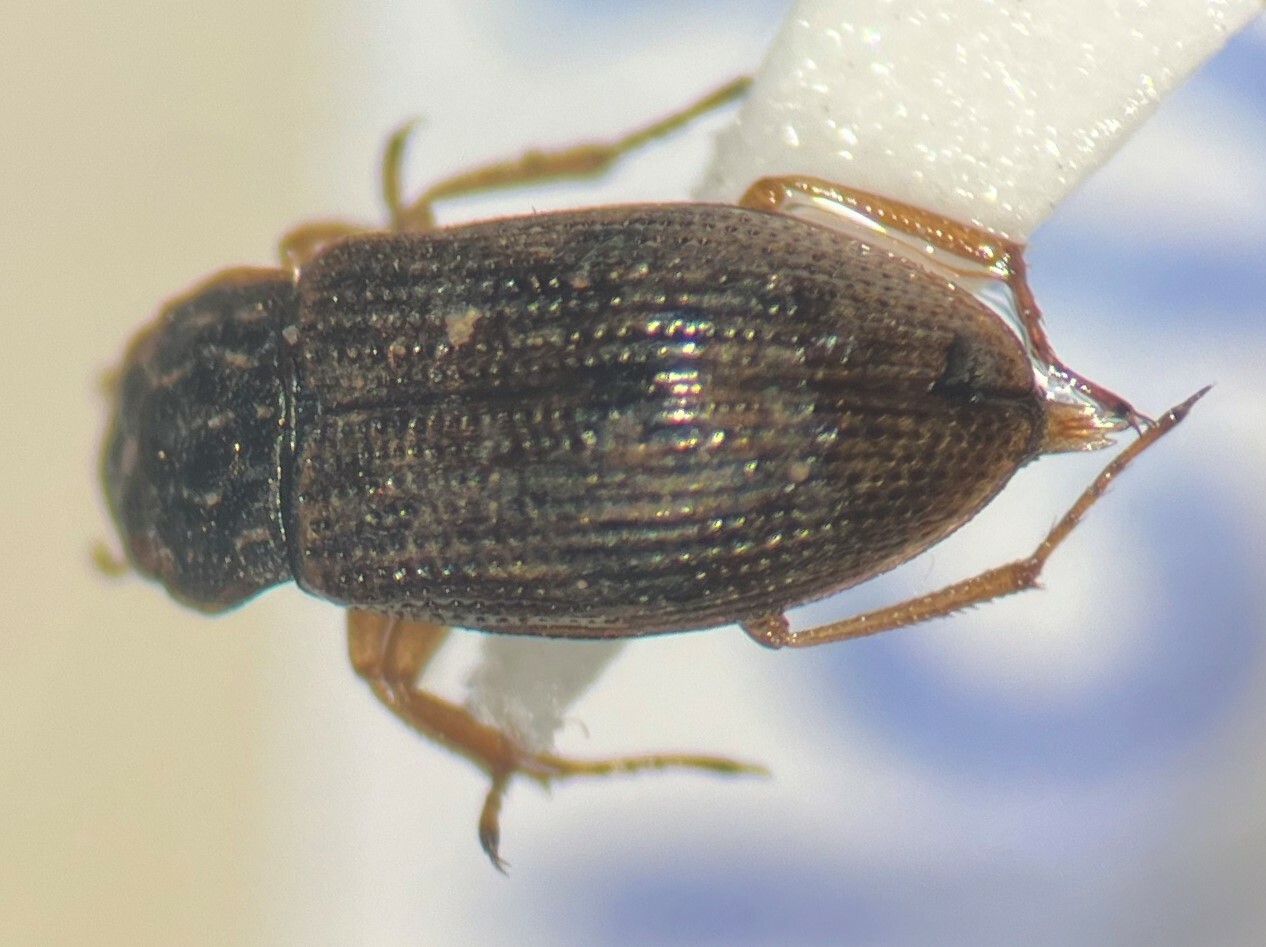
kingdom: Animalia
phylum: Arthropoda
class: Insecta
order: Coleoptera
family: Helophoridae
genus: Helophorus
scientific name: Helophorus lineatus
